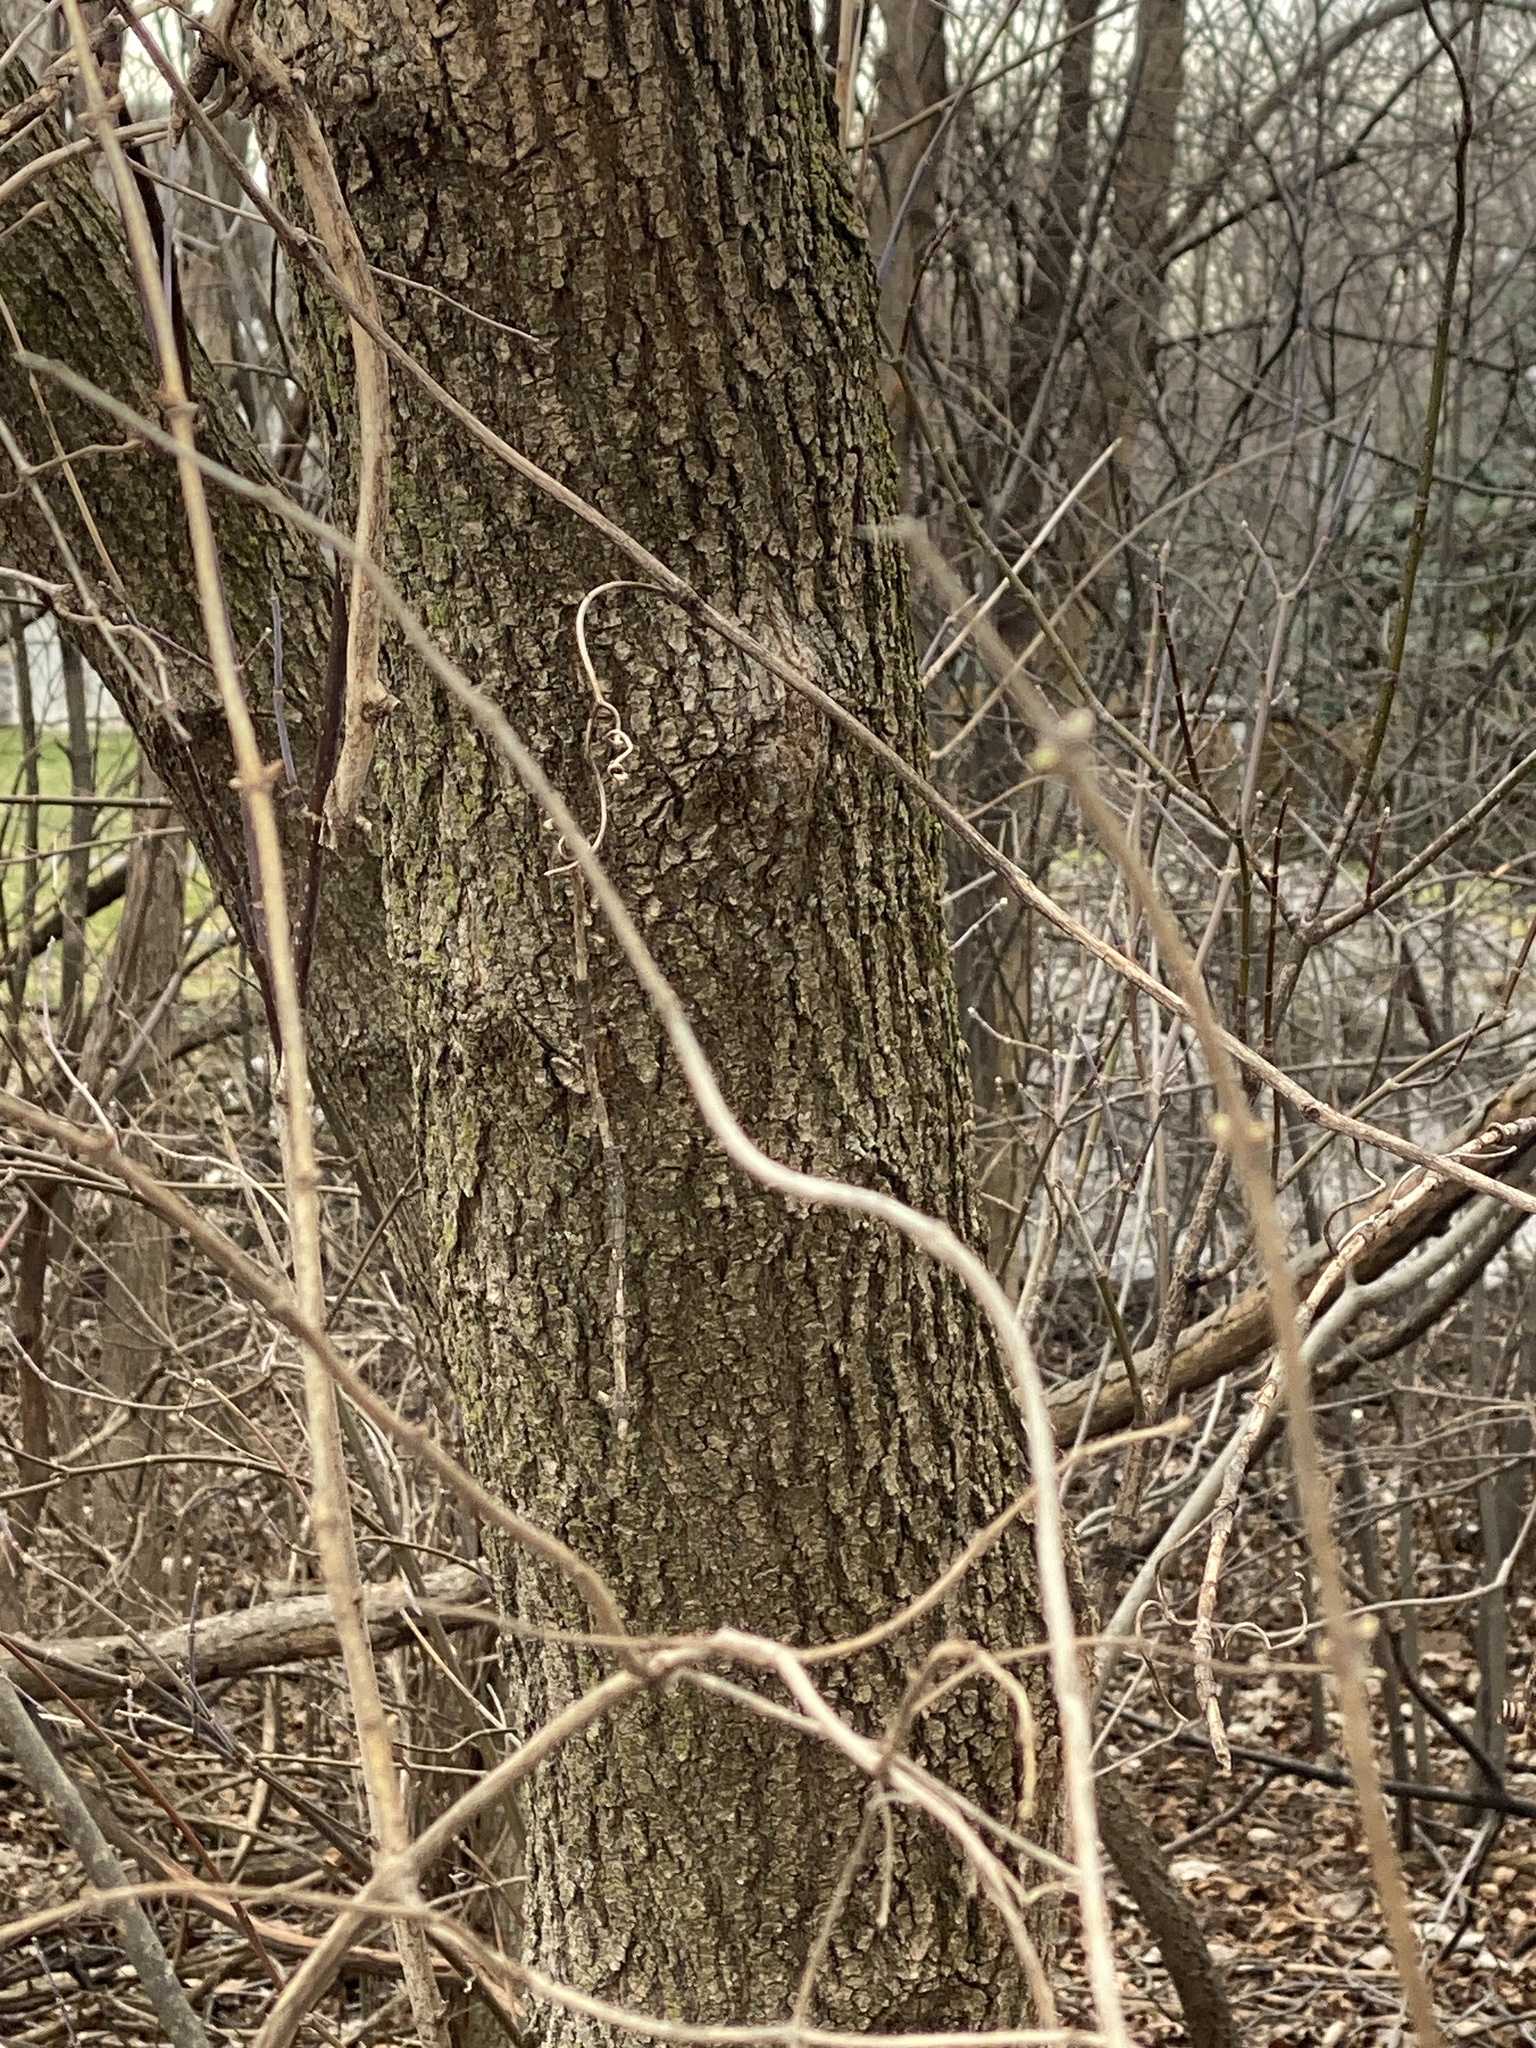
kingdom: Plantae
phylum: Tracheophyta
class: Magnoliopsida
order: Sapindales
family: Sapindaceae
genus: Acer
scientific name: Acer negundo
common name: Ashleaf maple
